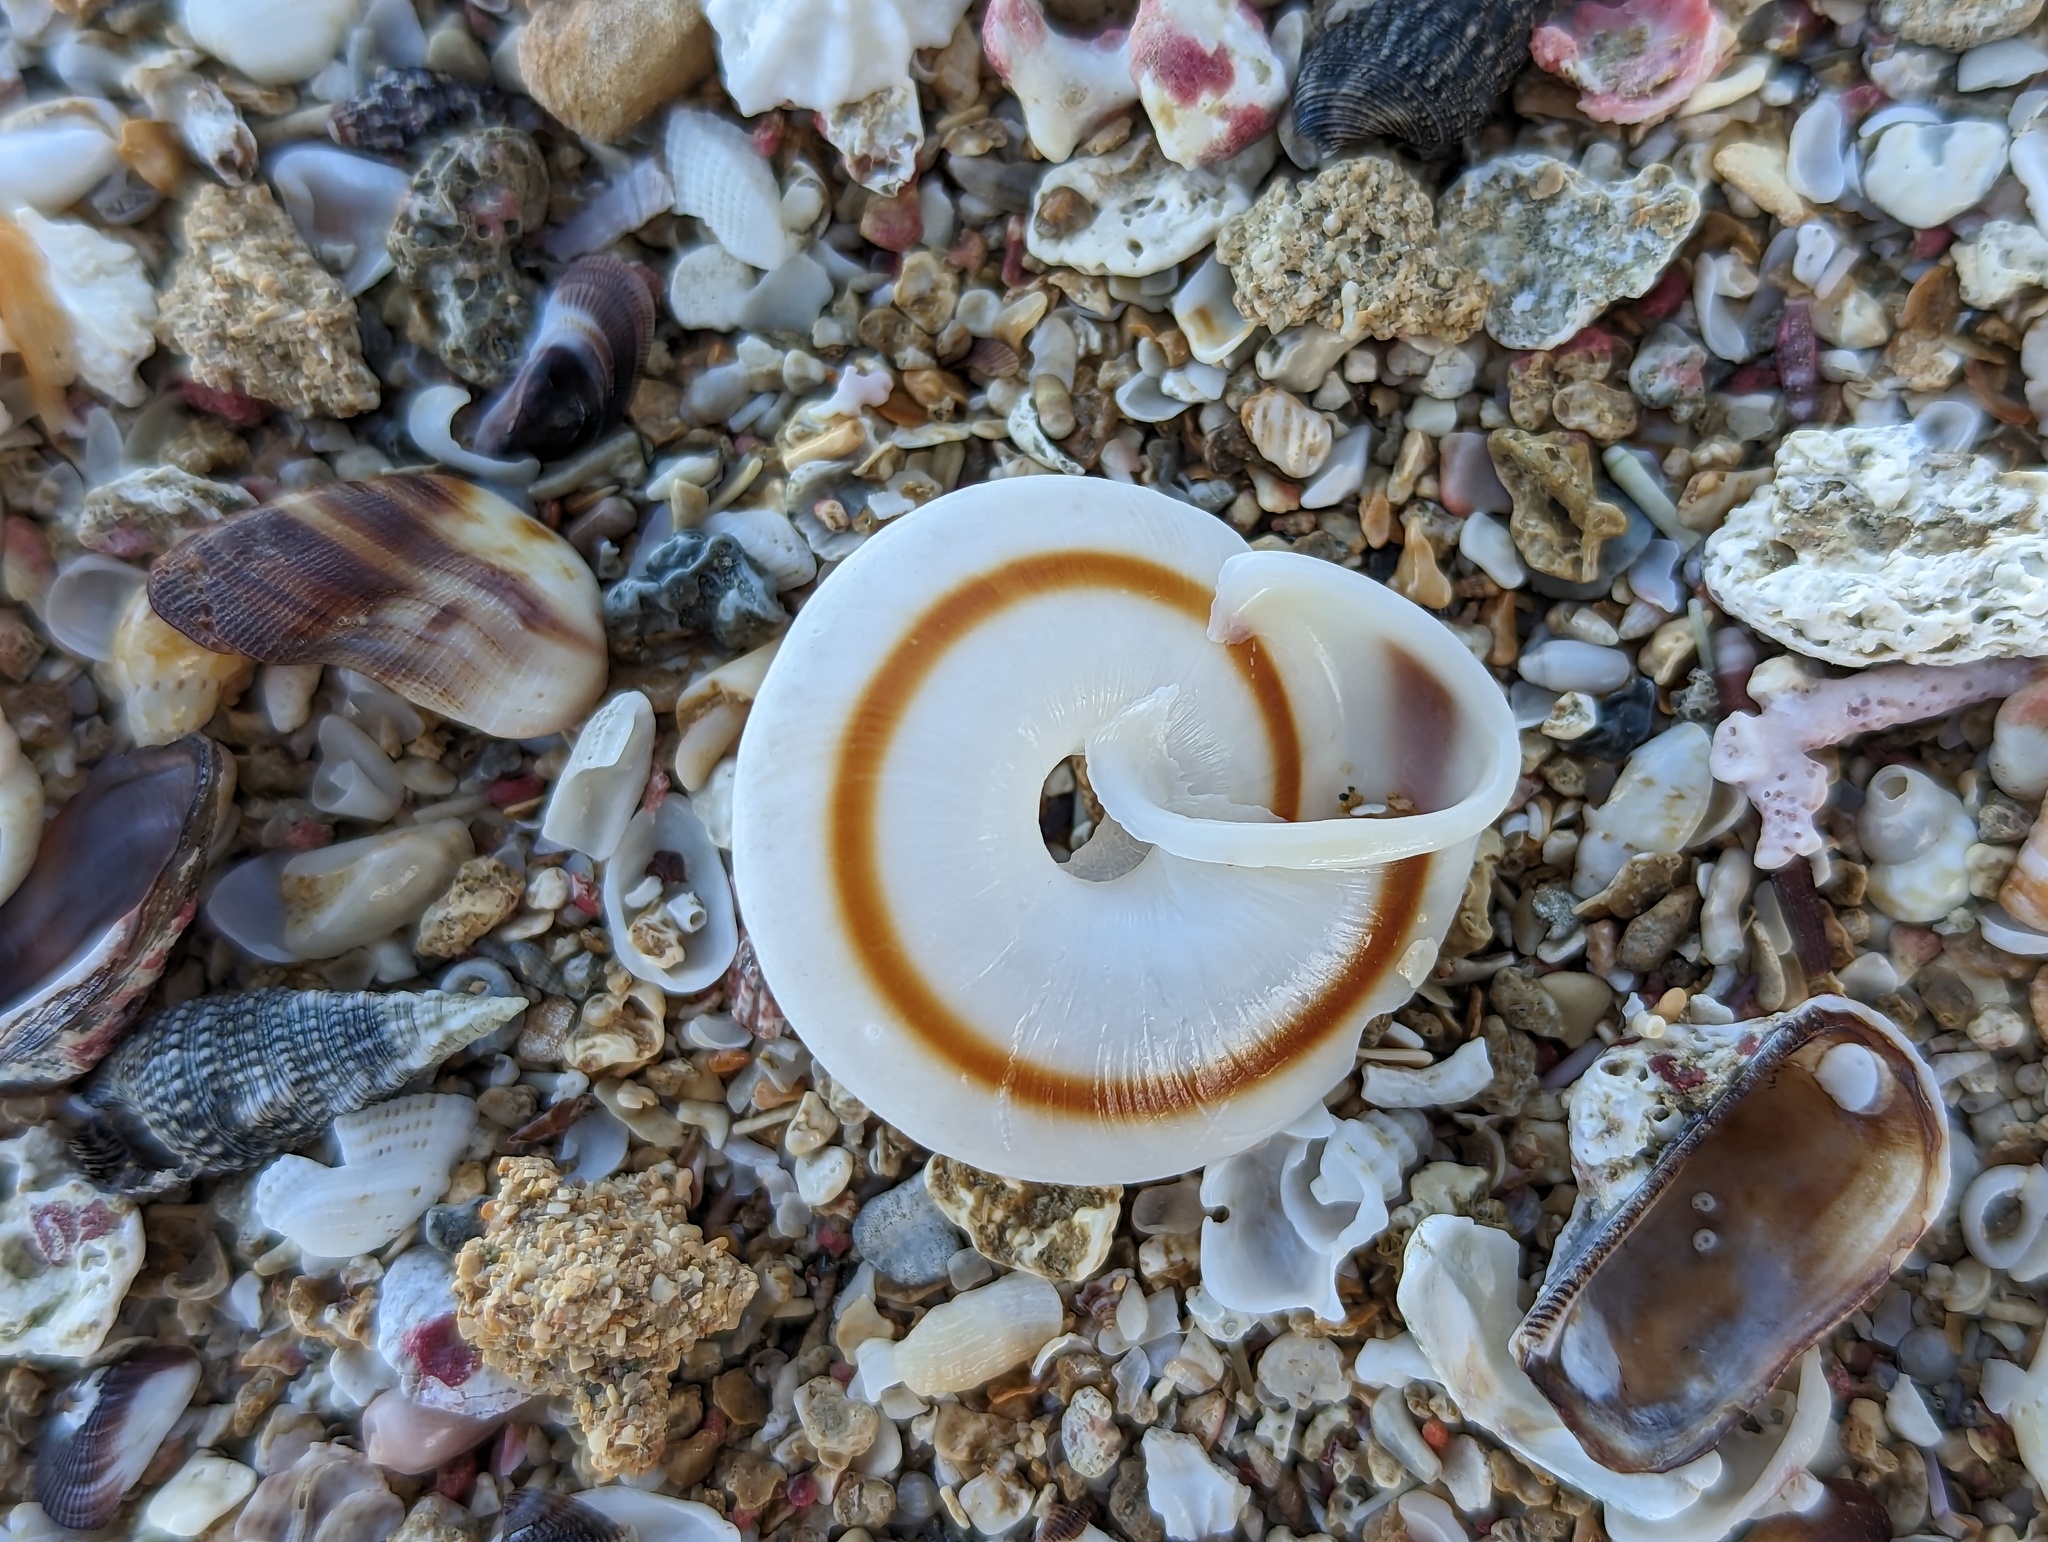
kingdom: Animalia
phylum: Mollusca
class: Gastropoda
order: Stylommatophora
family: Solaropsidae
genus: Caracolus
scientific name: Caracolus marginella
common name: Banded caracol
